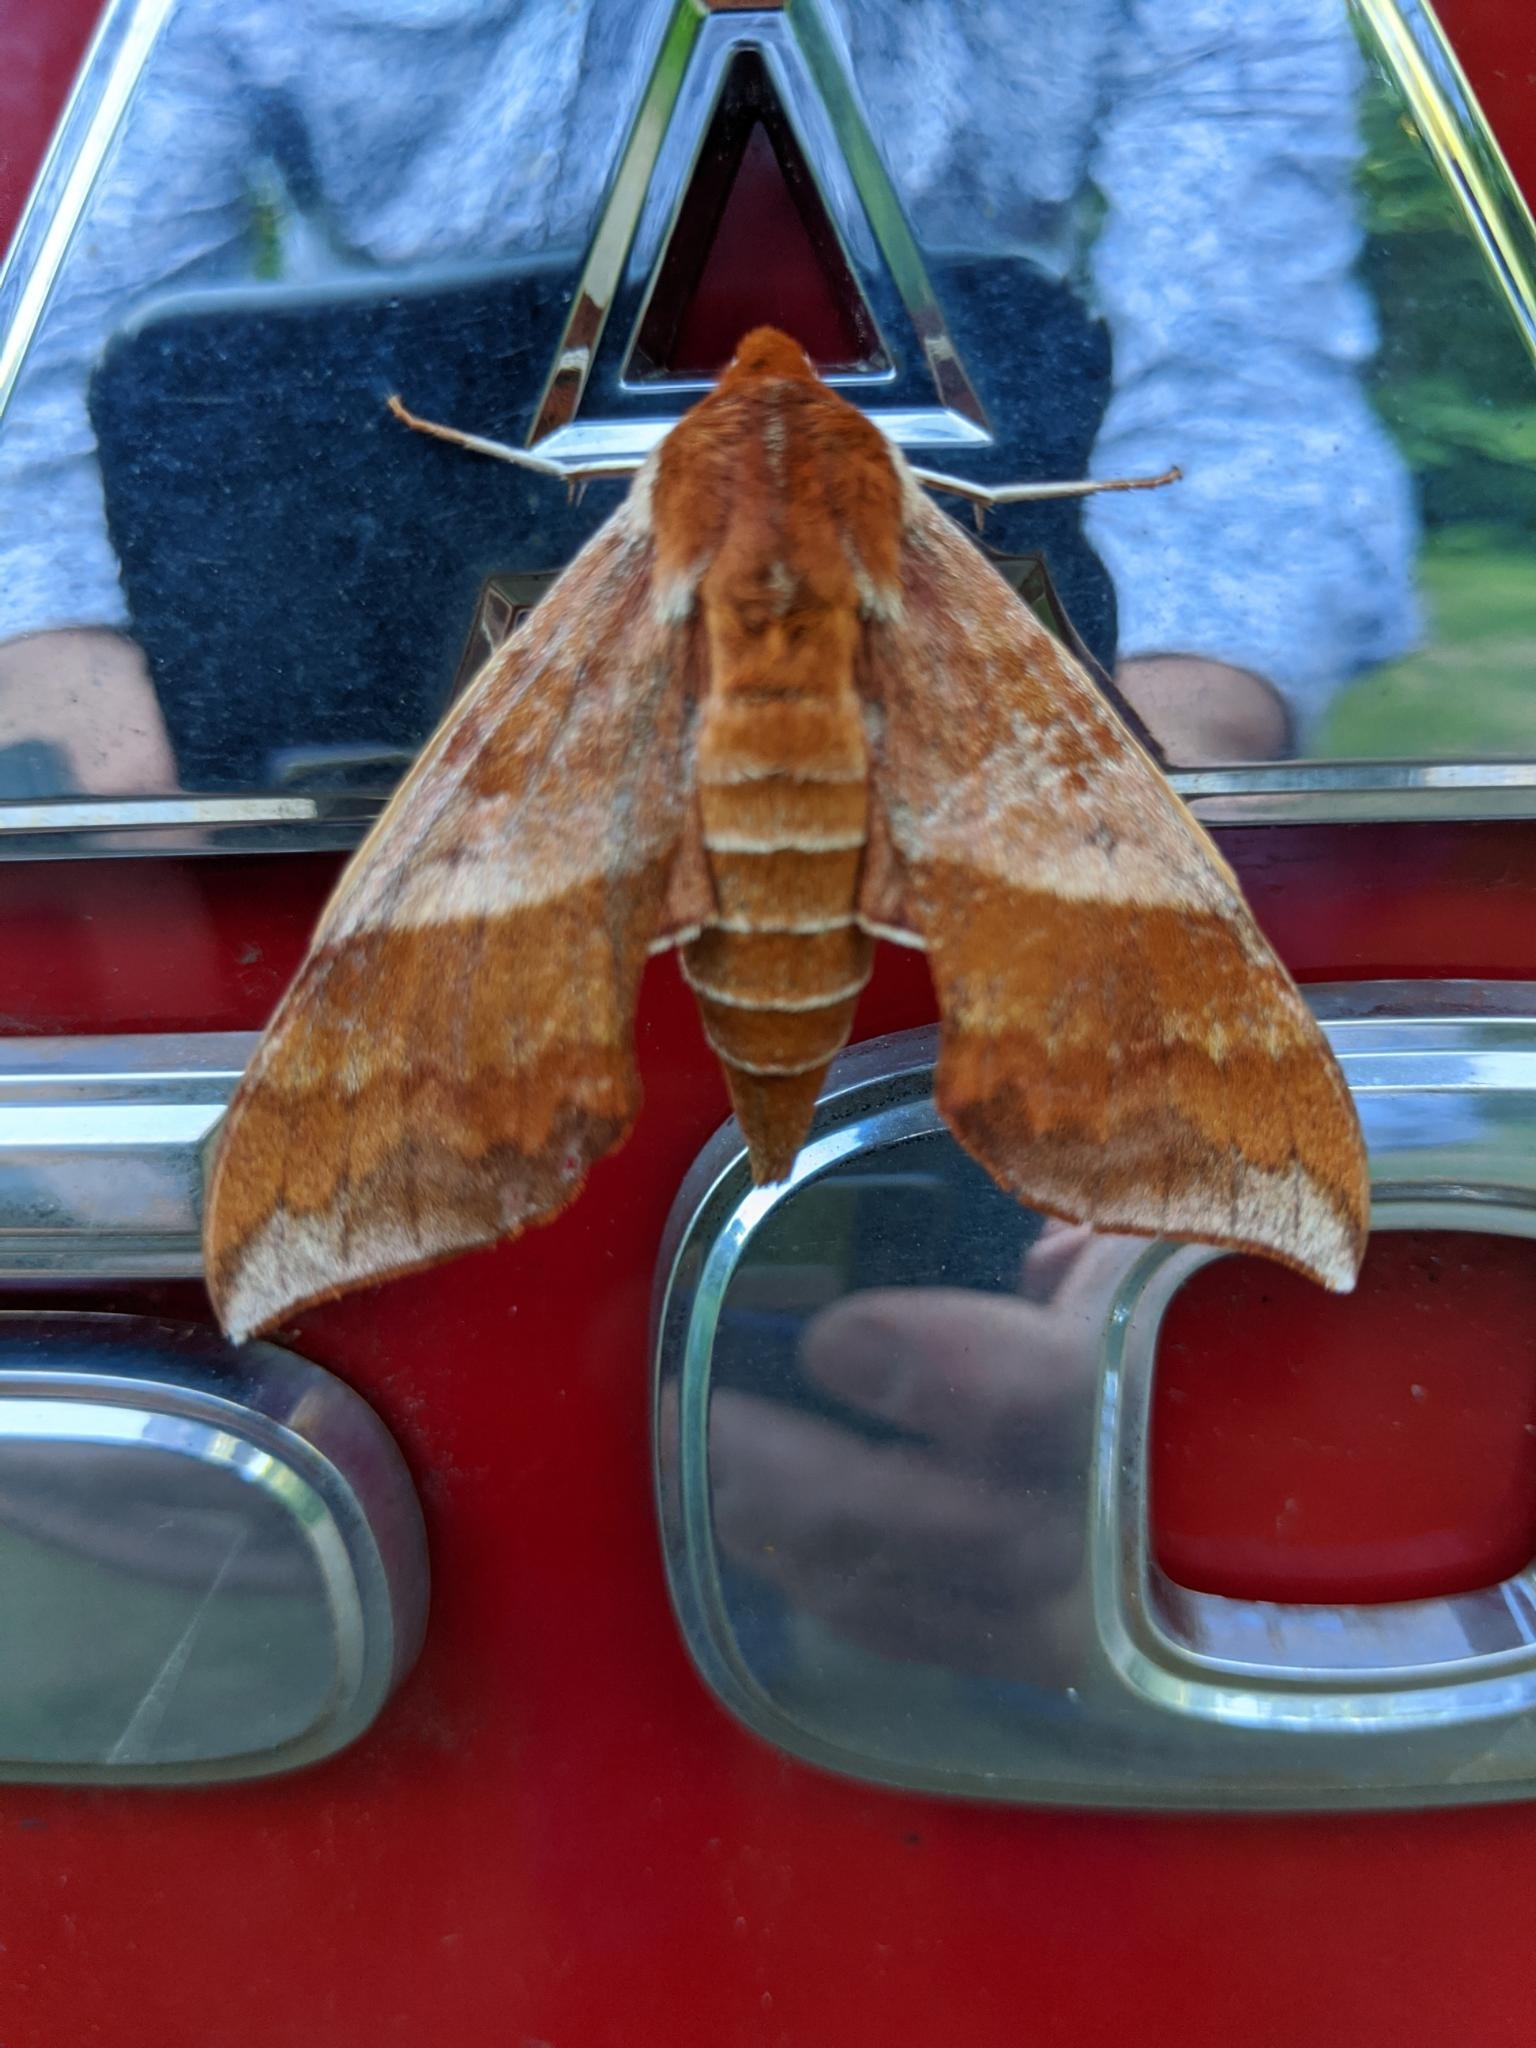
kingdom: Animalia
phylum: Arthropoda
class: Insecta
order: Lepidoptera
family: Sphingidae
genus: Darapsa
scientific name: Darapsa choerilus
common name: Azalea sphinx
